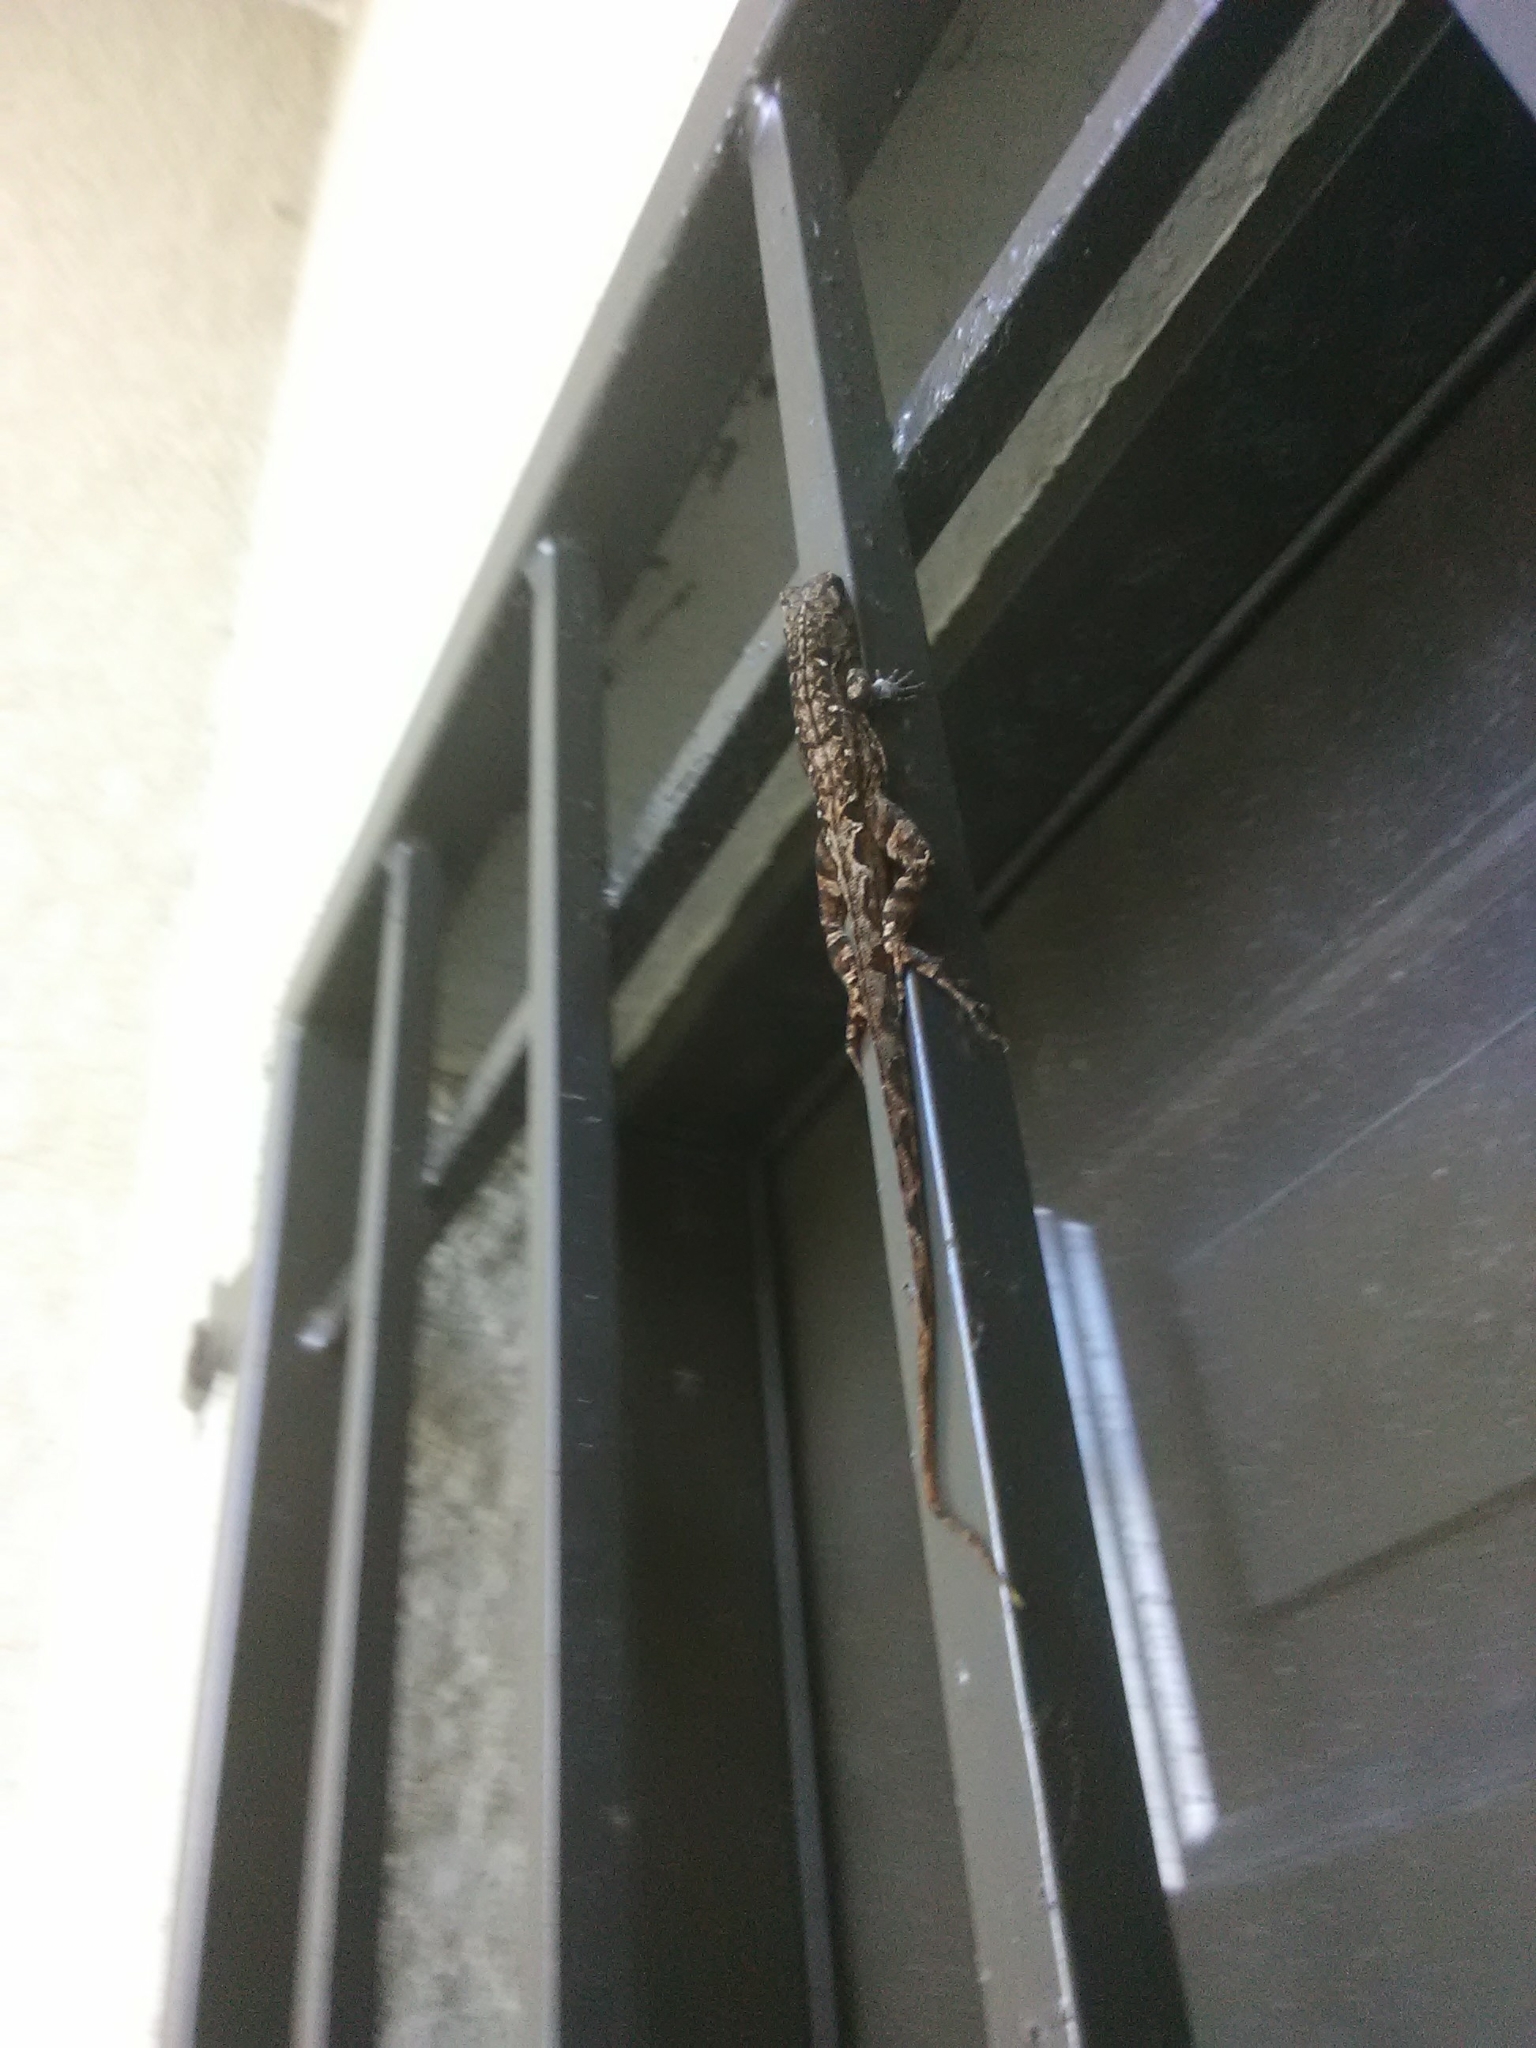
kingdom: Animalia
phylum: Chordata
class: Squamata
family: Dactyloidae
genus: Anolis
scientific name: Anolis sagrei
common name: Brown anole
